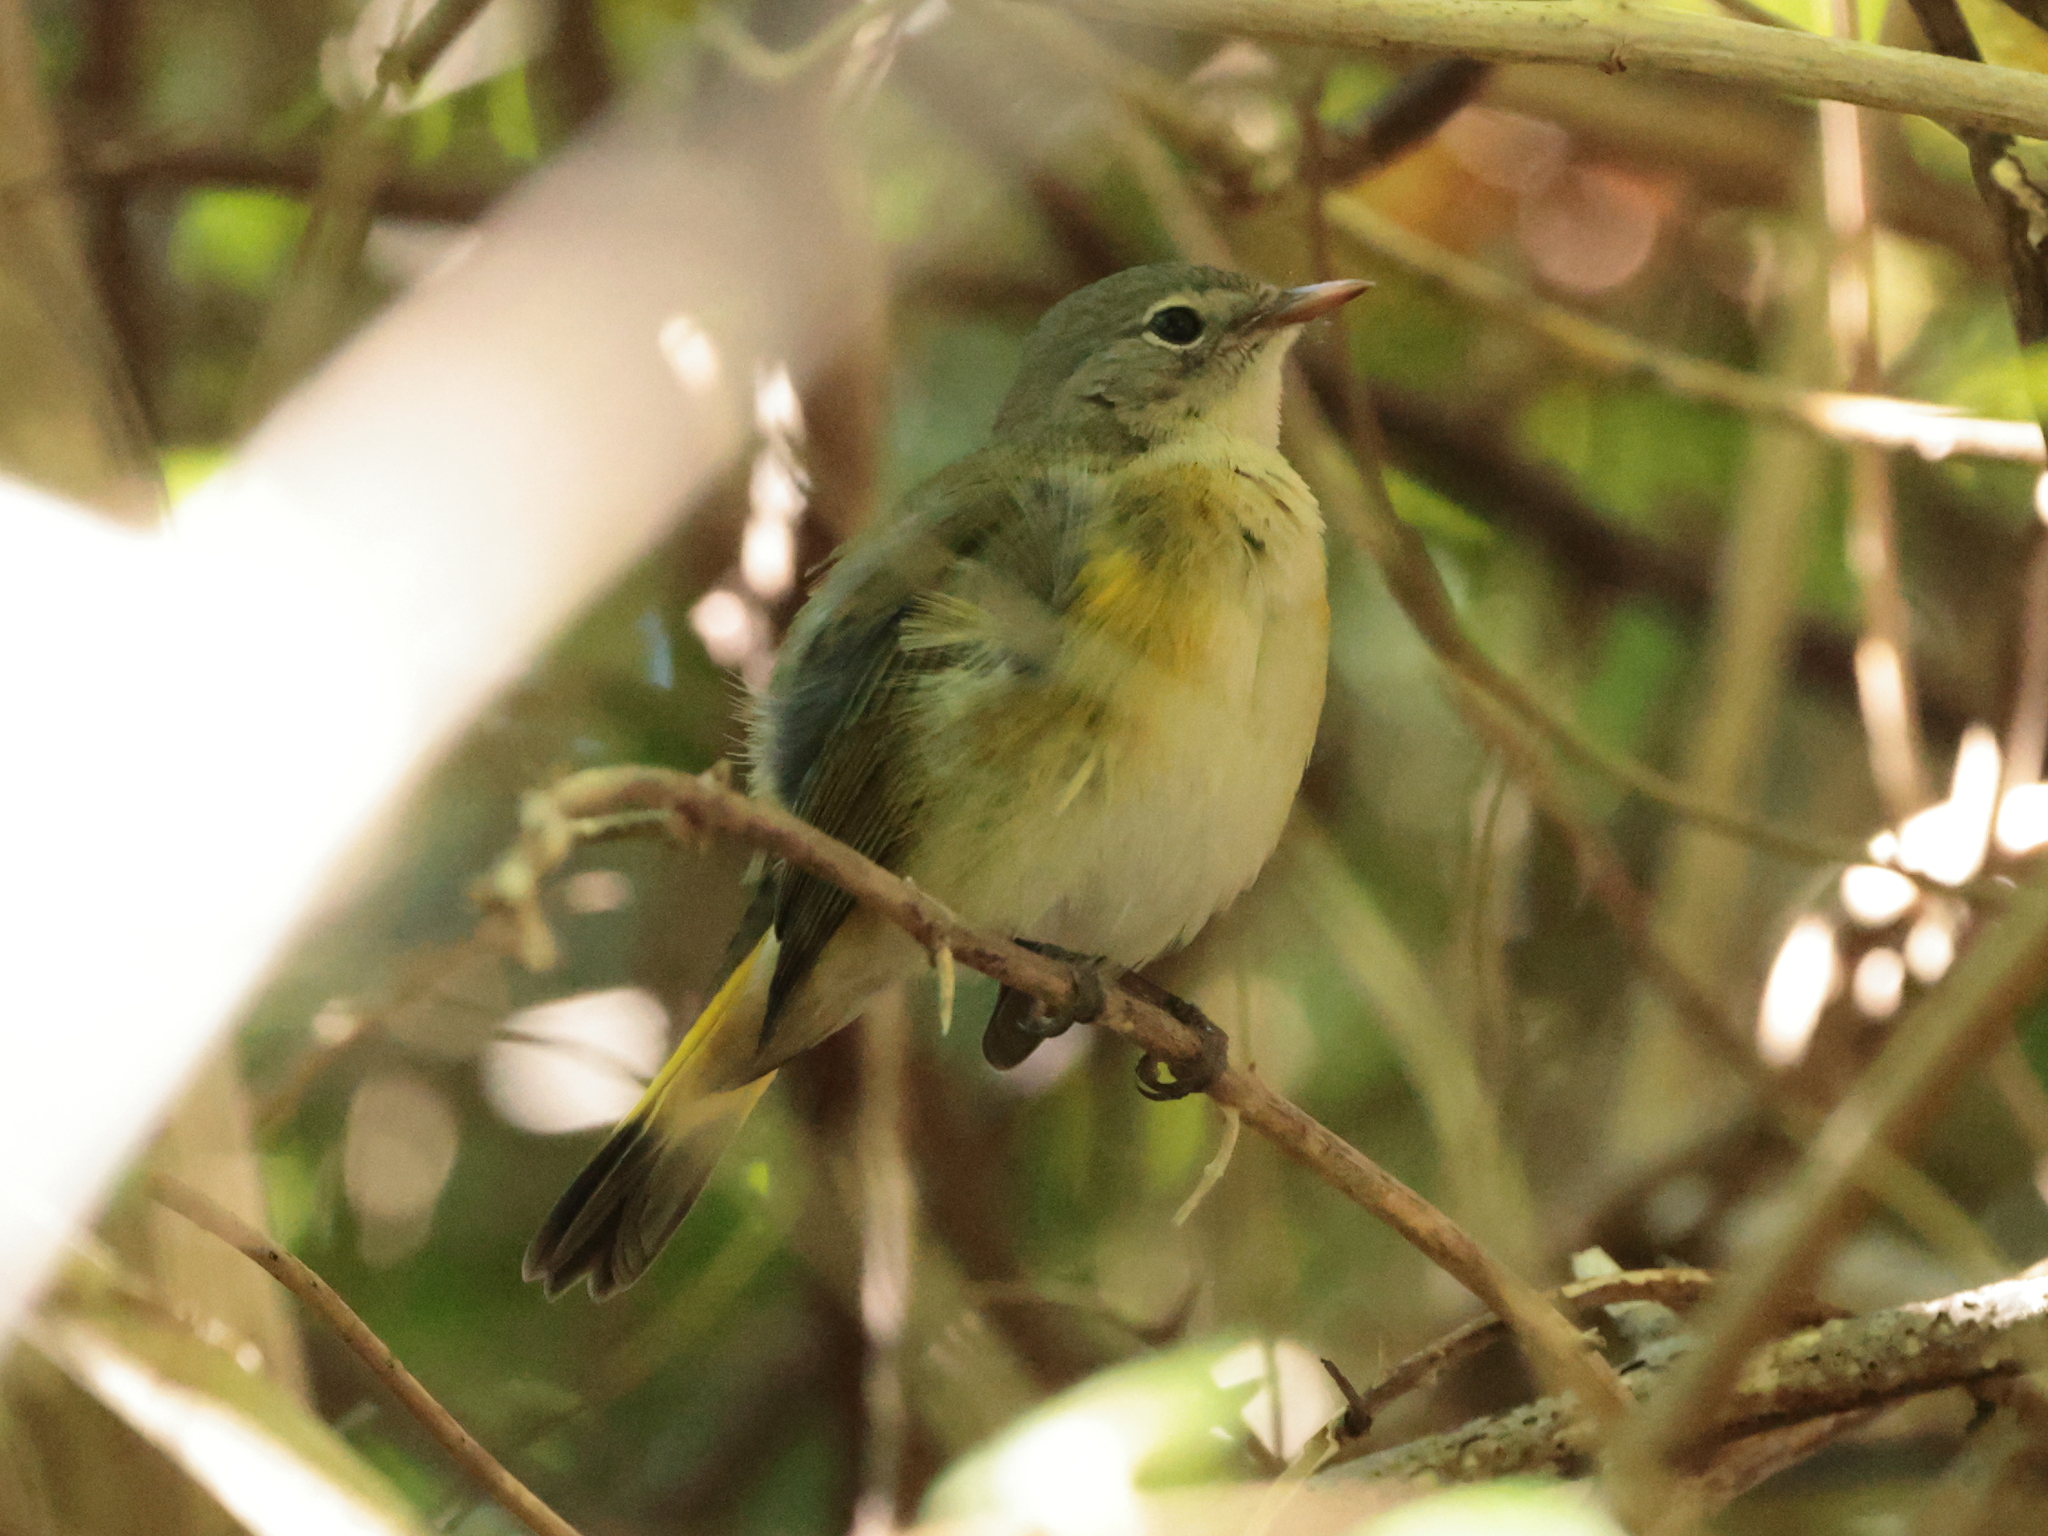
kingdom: Animalia
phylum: Chordata
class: Aves
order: Passeriformes
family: Parulidae
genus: Setophaga
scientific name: Setophaga ruticilla
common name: American redstart
